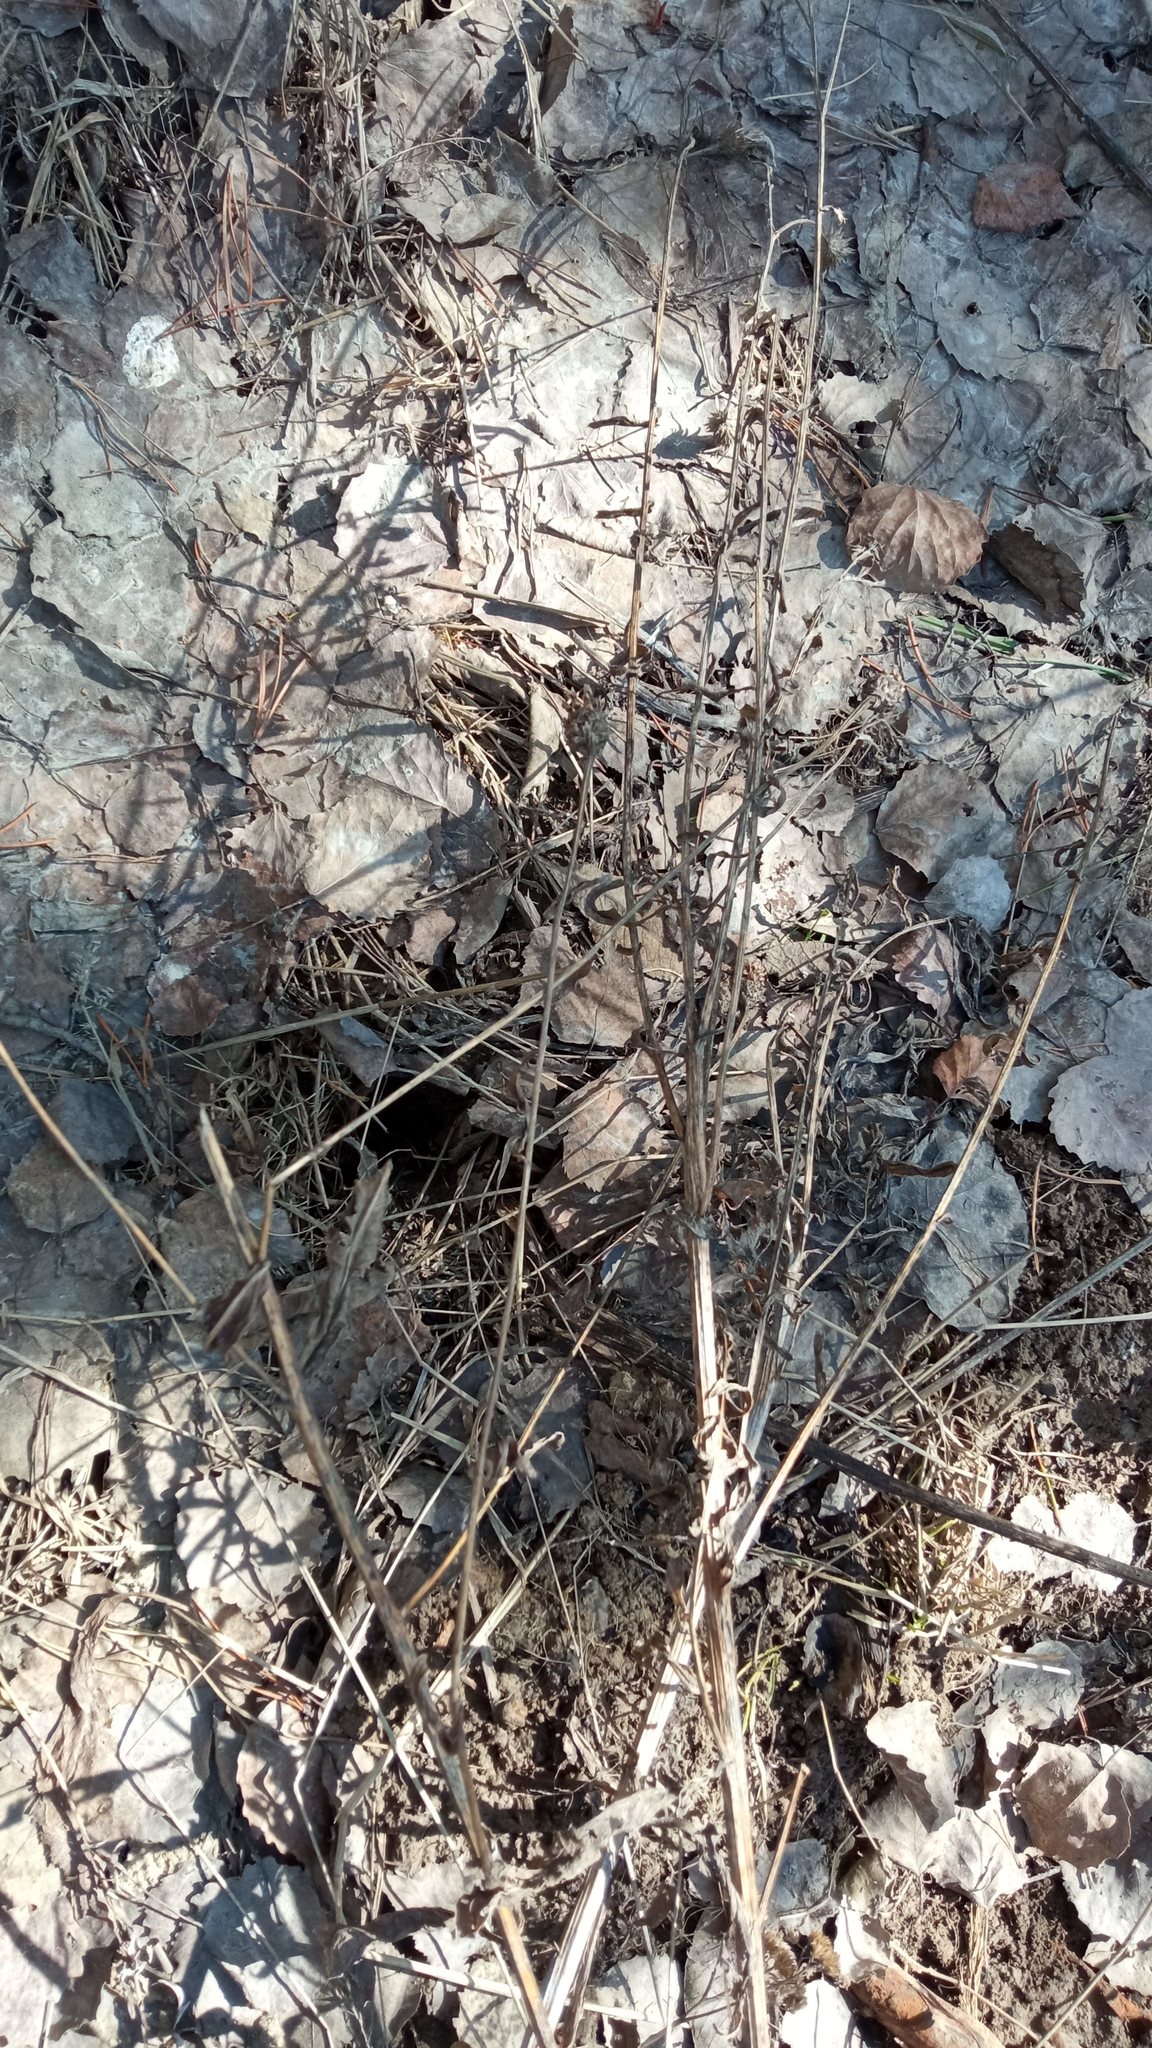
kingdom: Plantae
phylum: Tracheophyta
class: Magnoliopsida
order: Asterales
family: Asteraceae
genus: Centaurea
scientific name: Centaurea jacea
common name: Brown knapweed
